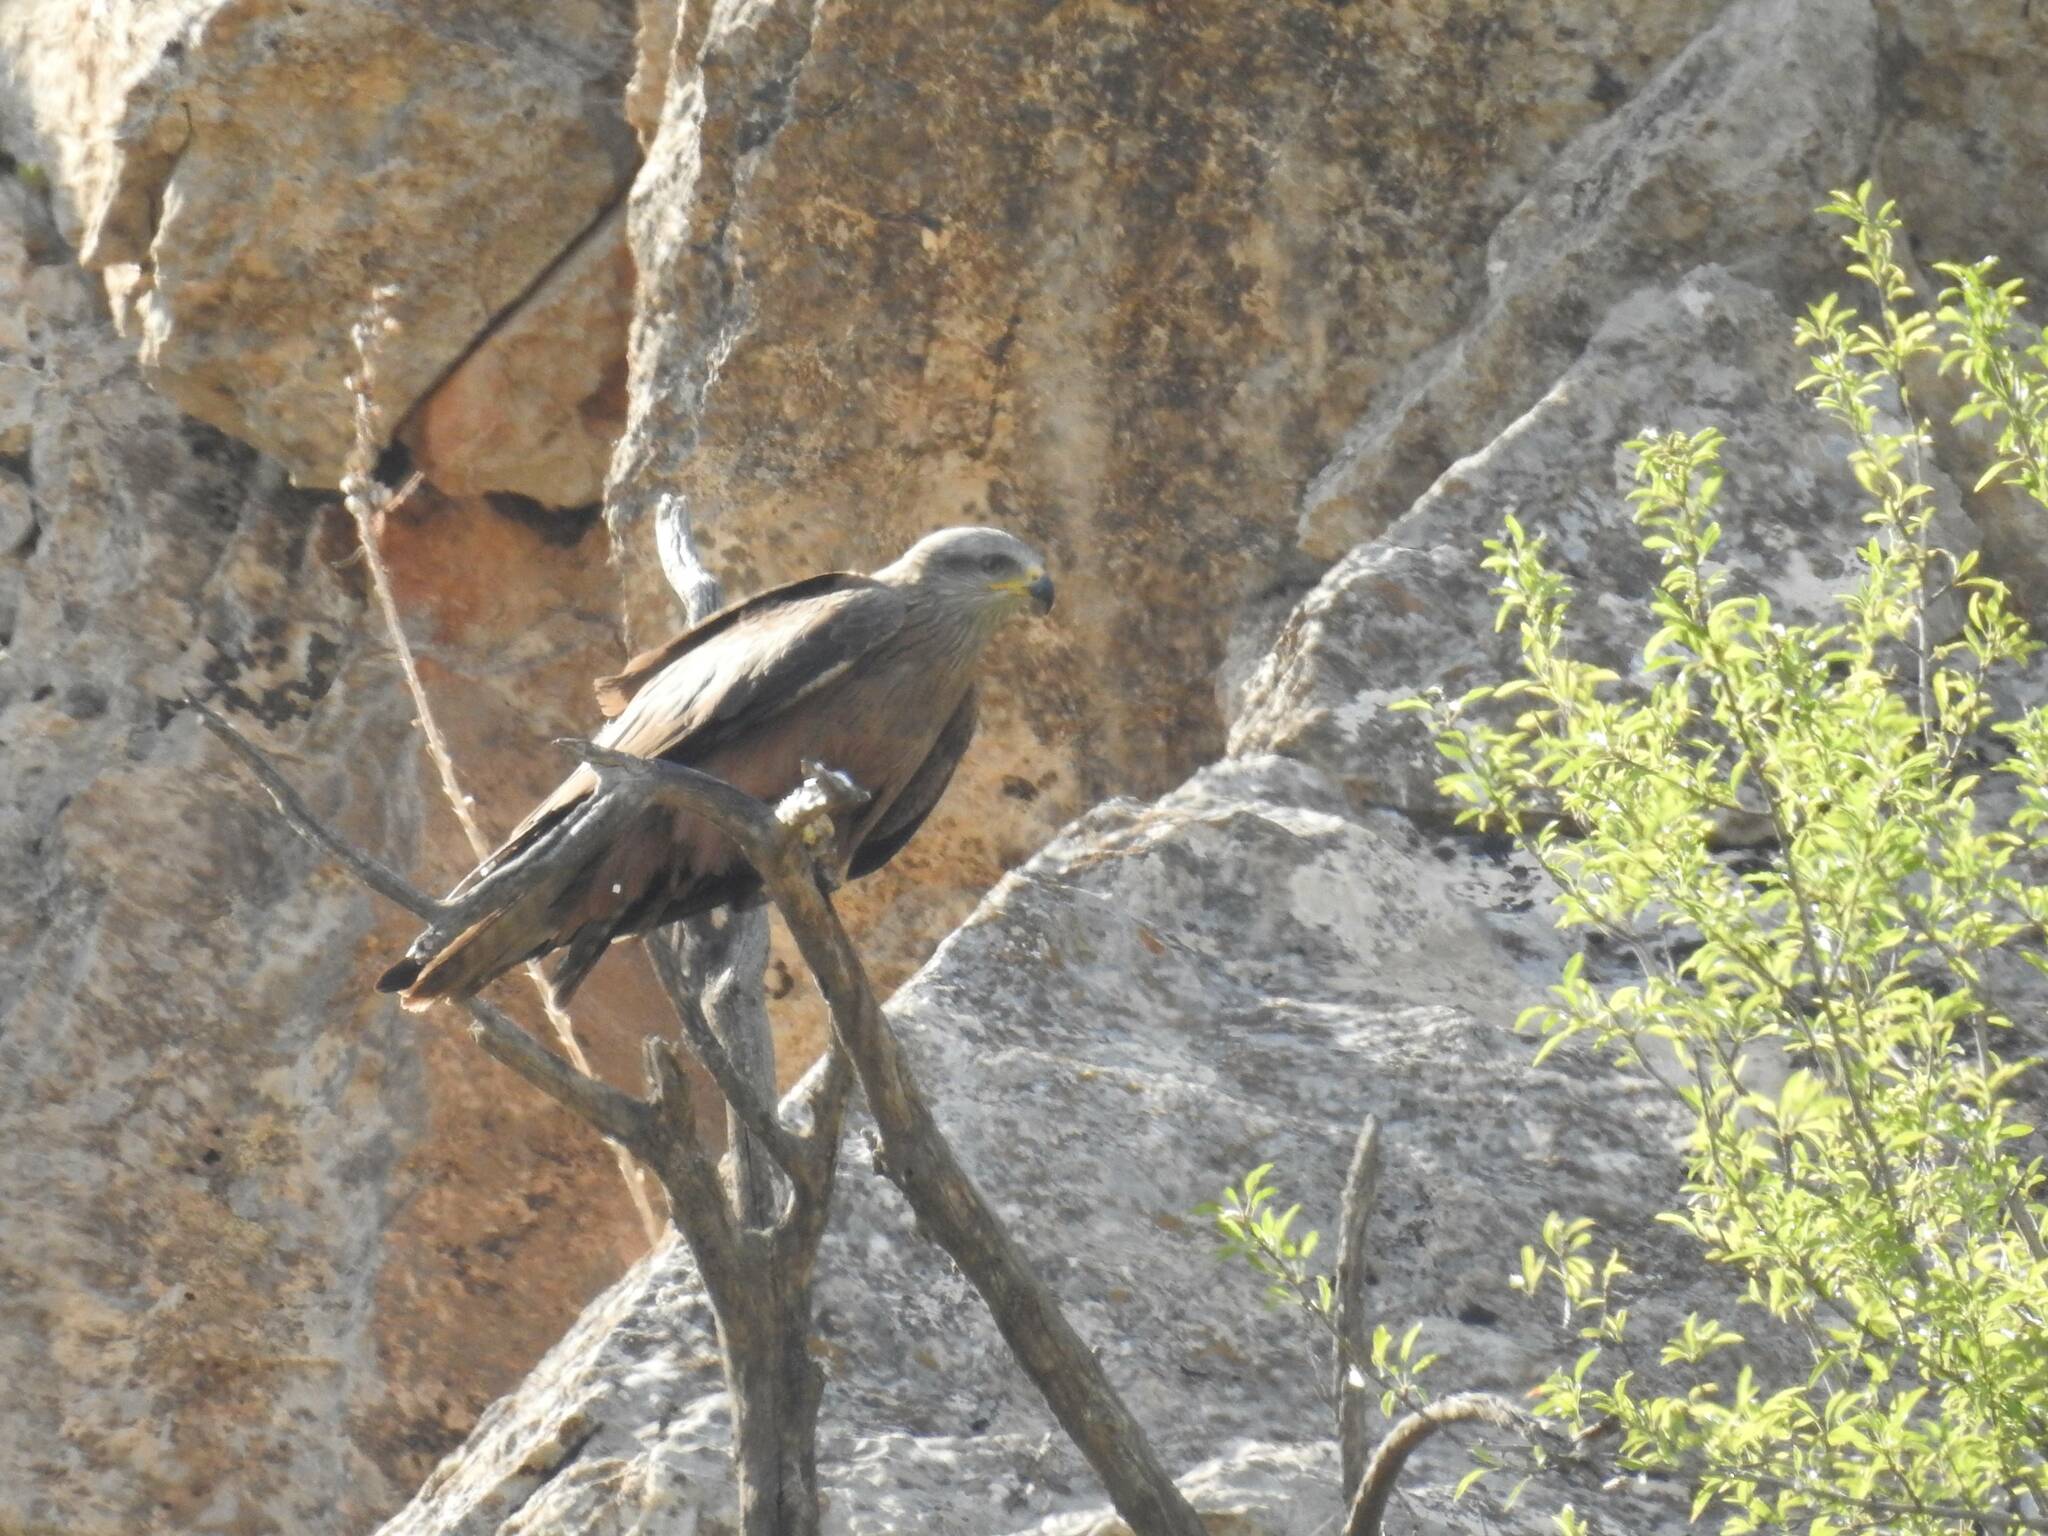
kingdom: Animalia
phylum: Chordata
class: Aves
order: Accipitriformes
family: Accipitridae
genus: Milvus
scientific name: Milvus migrans
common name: Black kite
